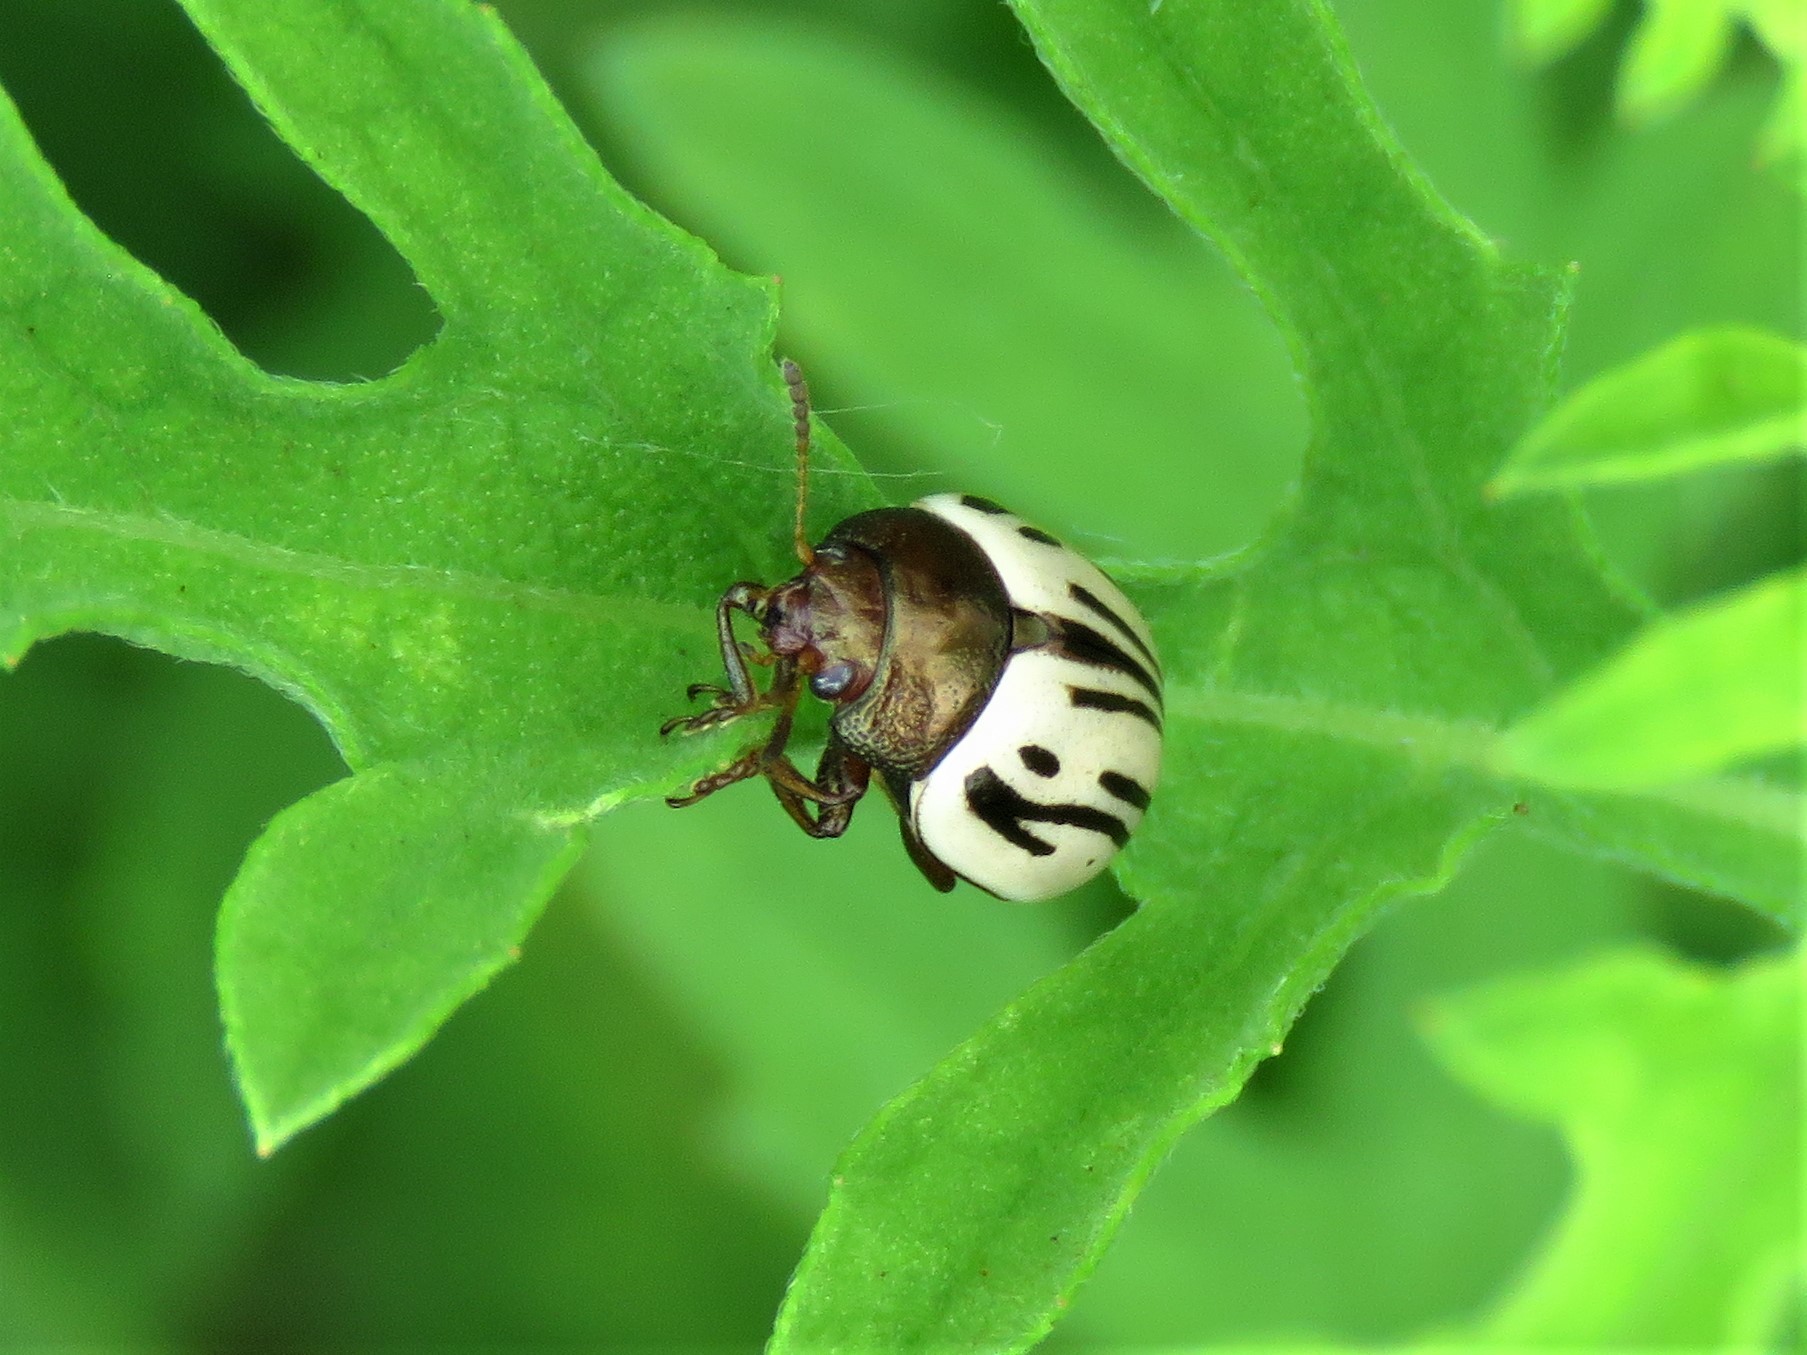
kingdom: Animalia
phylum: Arthropoda
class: Insecta
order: Coleoptera
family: Chrysomelidae
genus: Calligrapha
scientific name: Calligrapha
